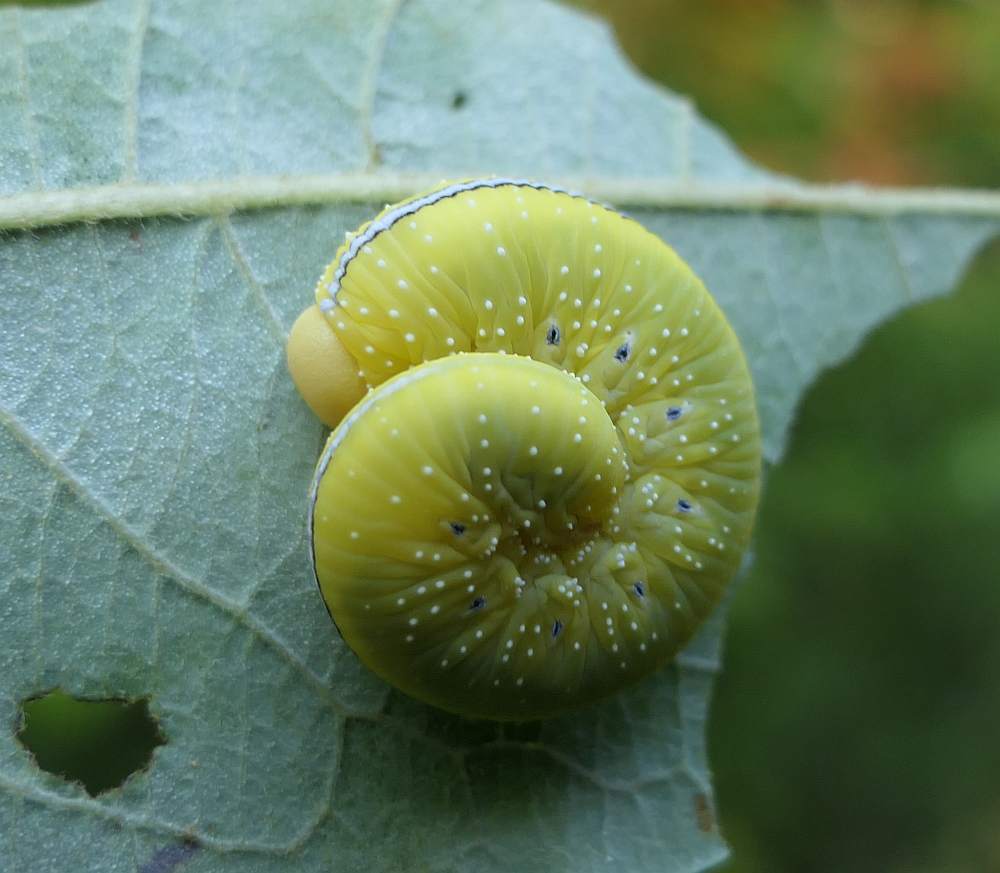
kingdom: Animalia
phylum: Arthropoda
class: Insecta
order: Hymenoptera
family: Cimbicidae
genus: Cimbex
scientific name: Cimbex americana
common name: Elm sawfly
